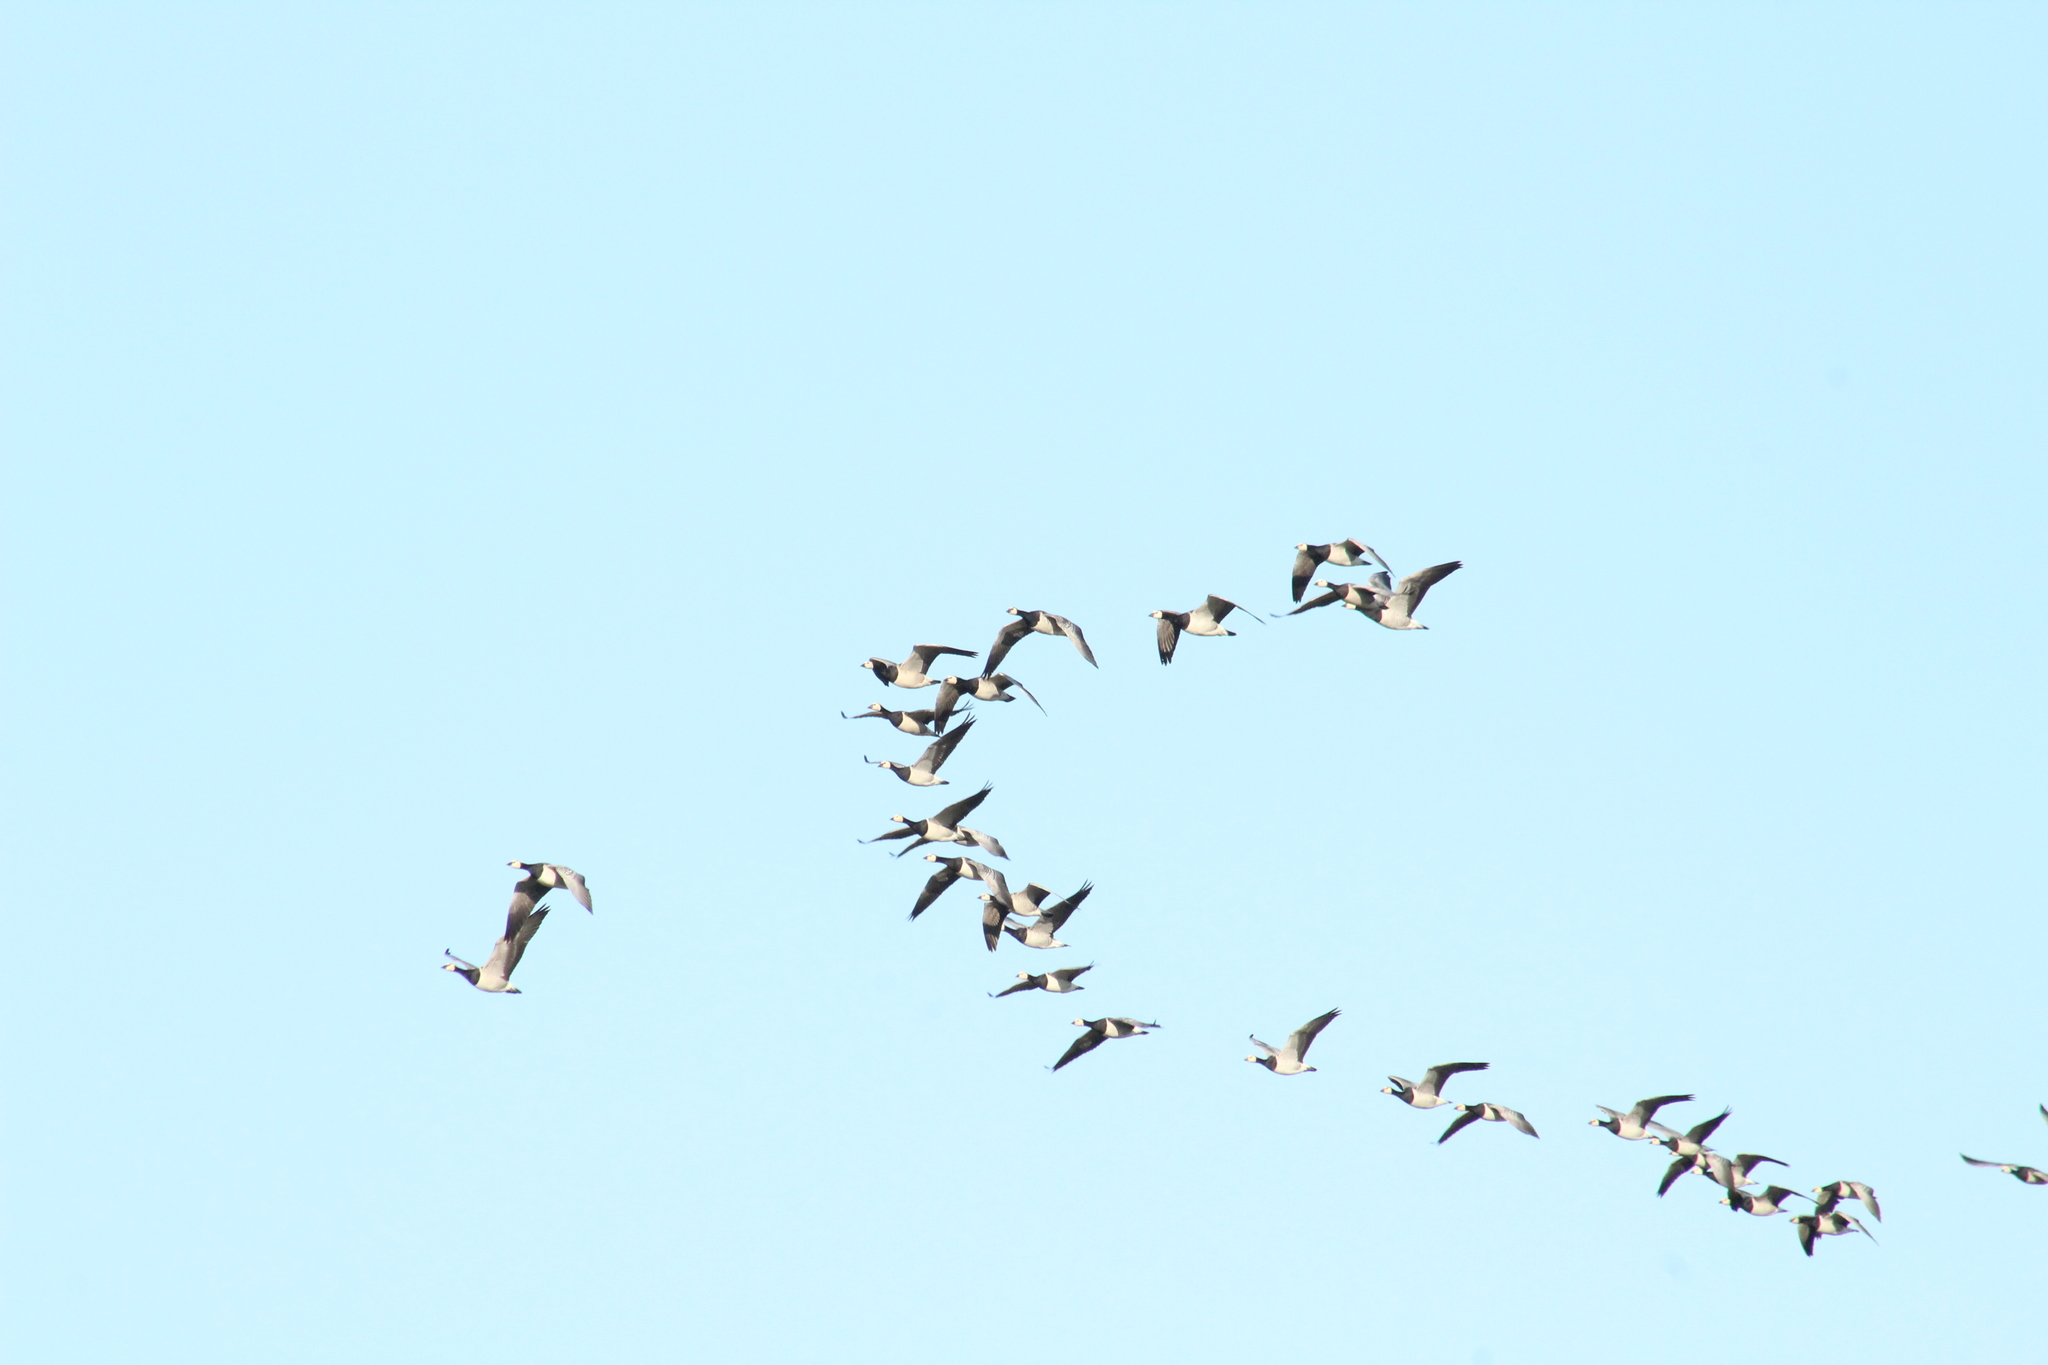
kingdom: Animalia
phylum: Chordata
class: Aves
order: Anseriformes
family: Anatidae
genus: Branta
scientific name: Branta leucopsis
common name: Barnacle goose
